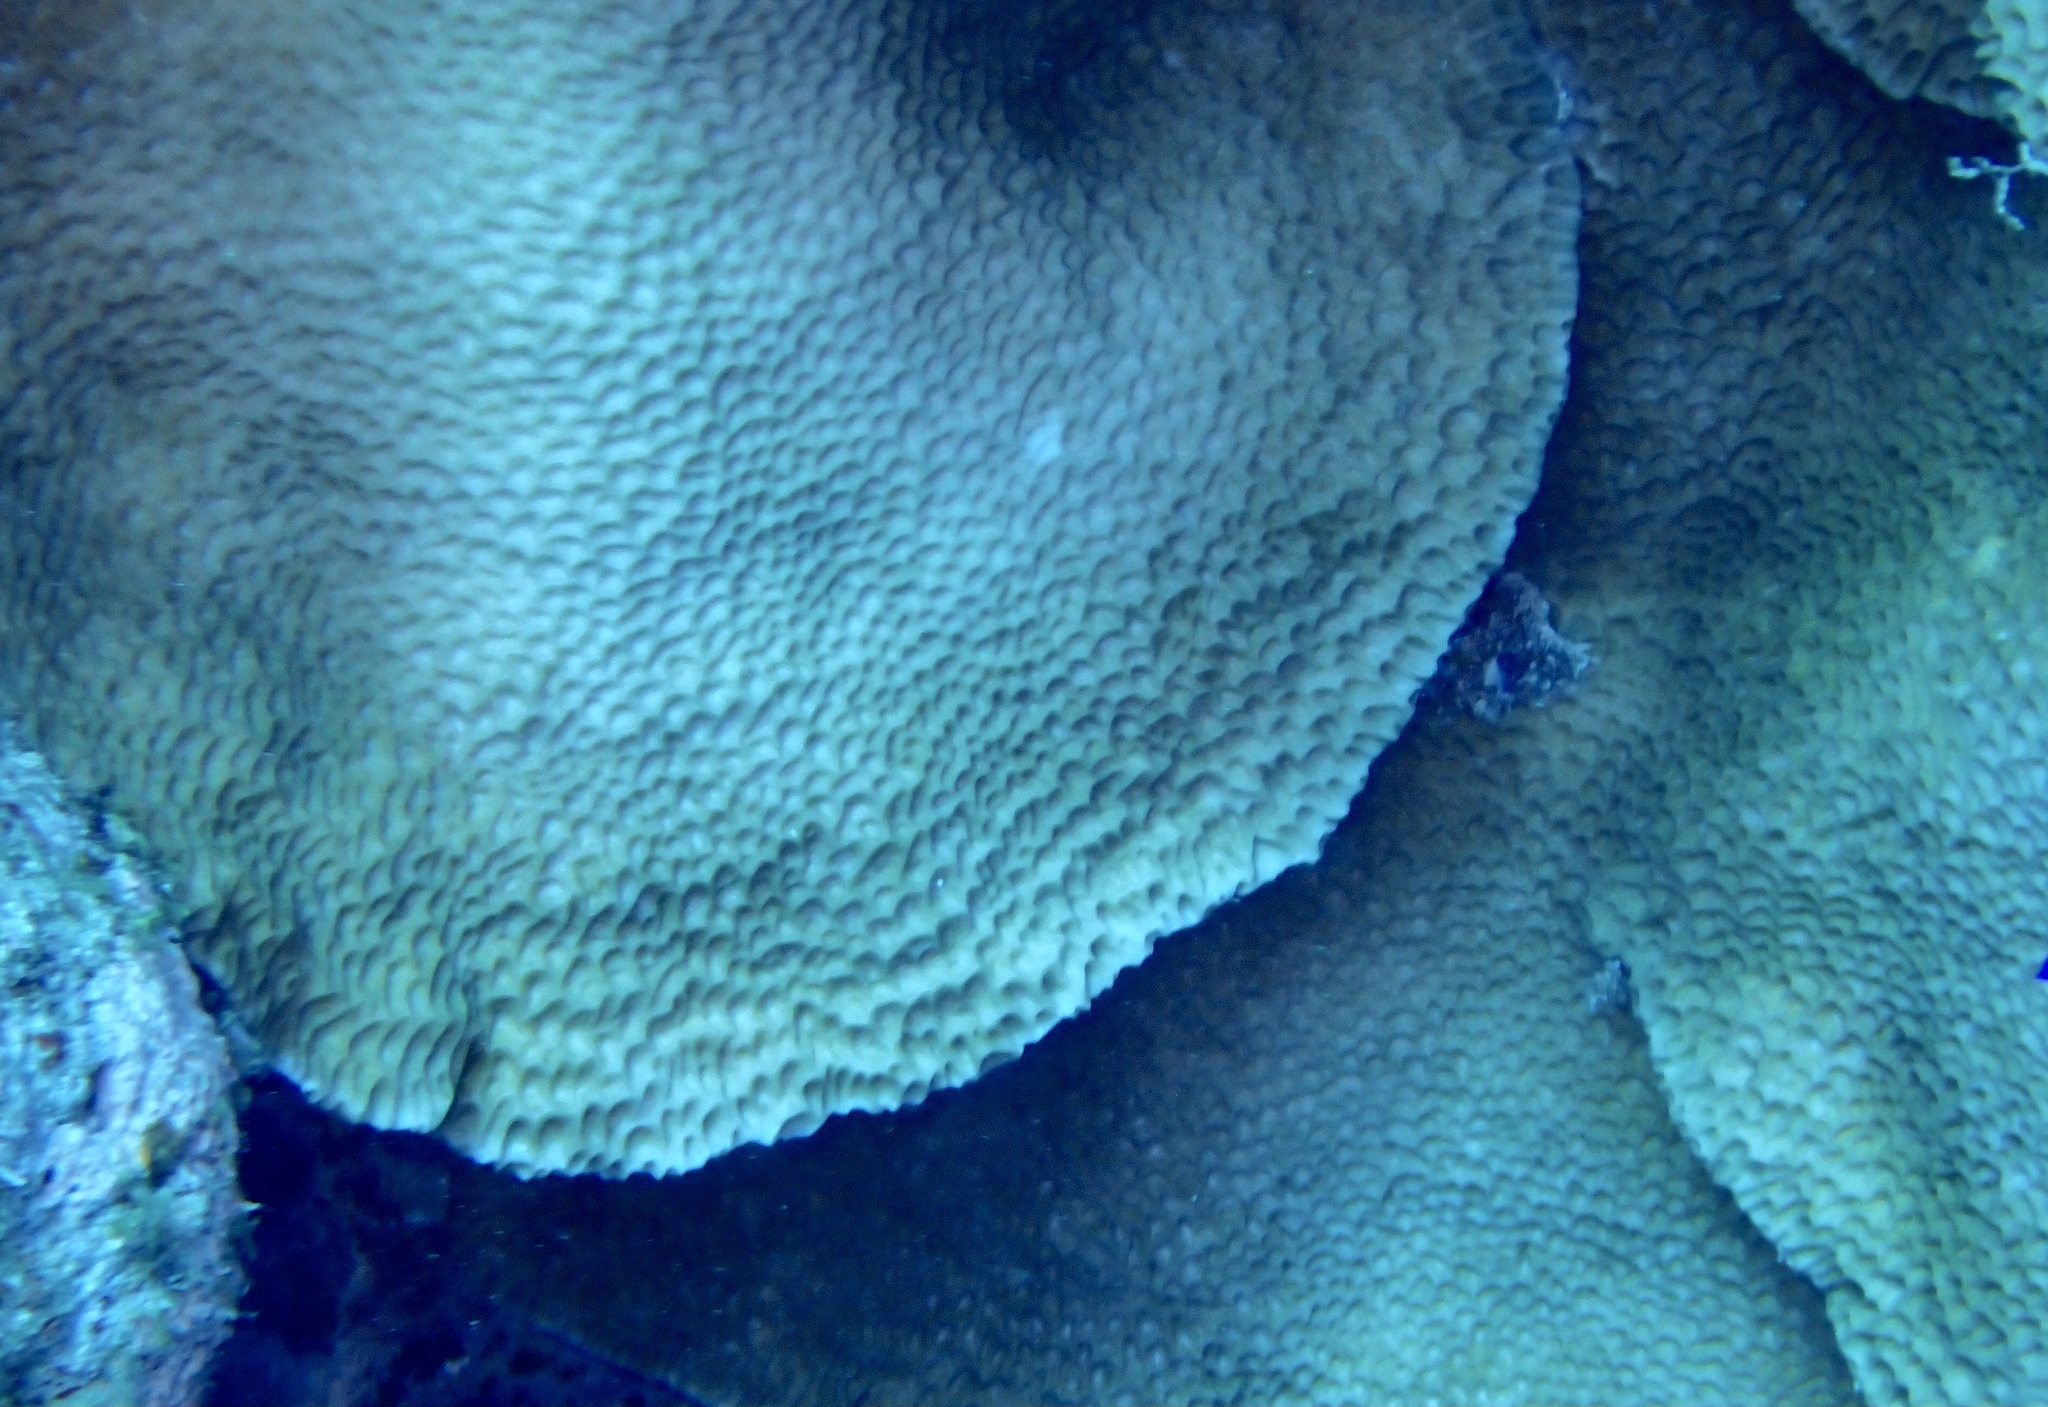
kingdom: Animalia
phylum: Cnidaria
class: Anthozoa
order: Scleractinia
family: Agariciidae
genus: Gardineroseris
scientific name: Gardineroseris planulata
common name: Gardiner's coral
